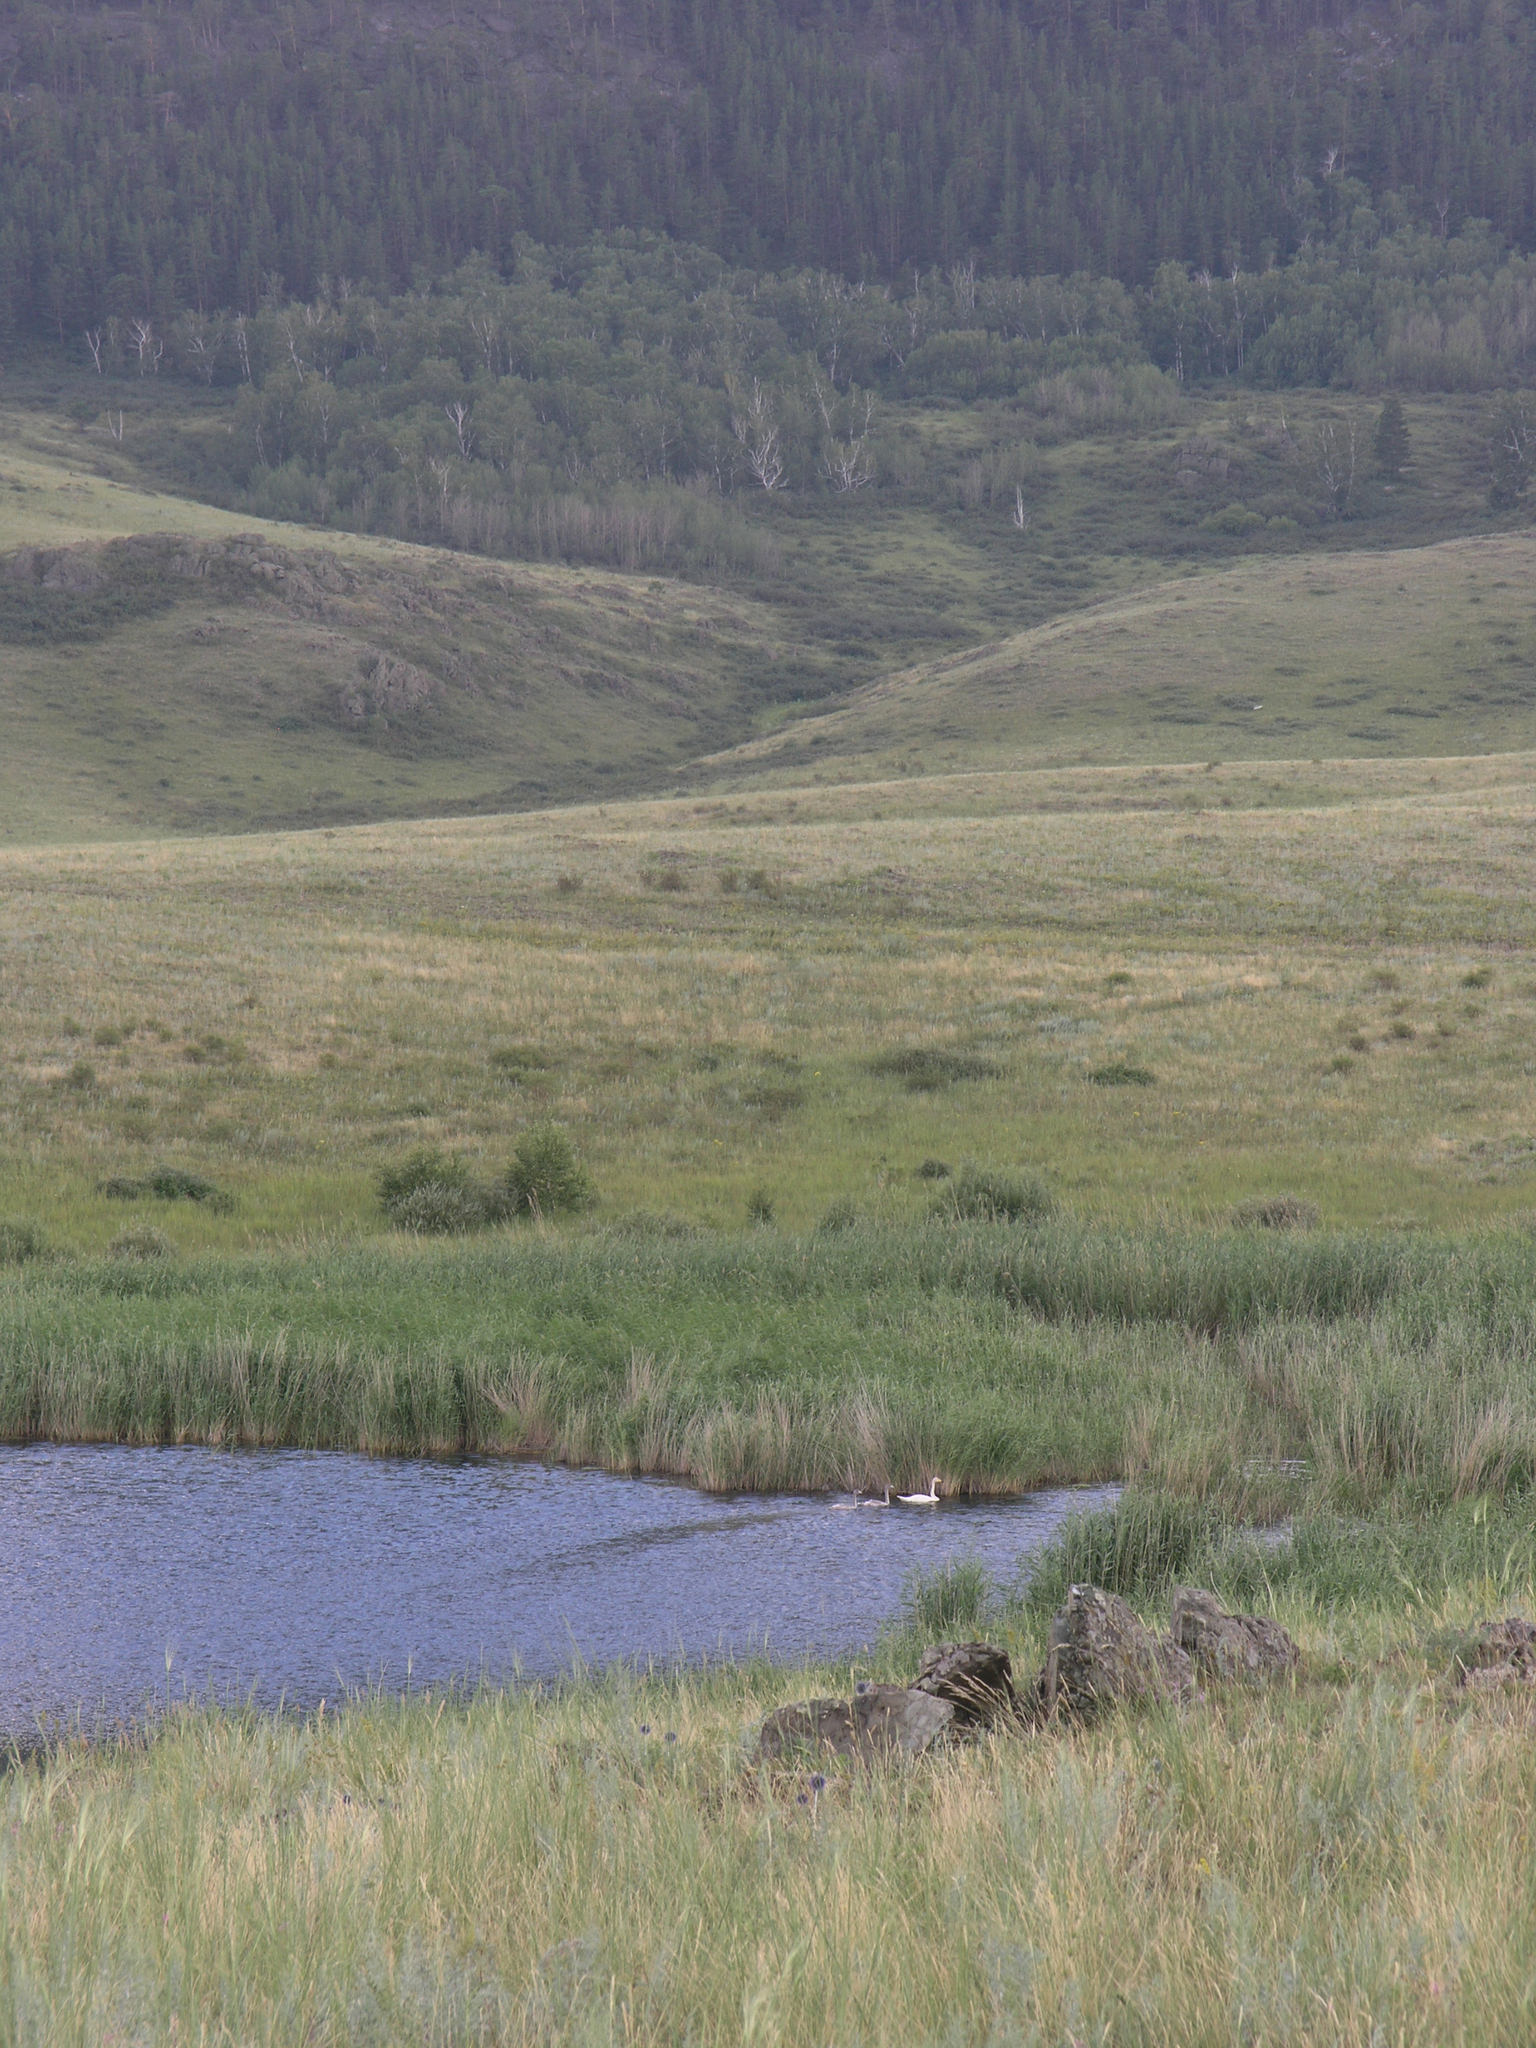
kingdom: Animalia
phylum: Chordata
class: Aves
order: Anseriformes
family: Anatidae
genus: Cygnus
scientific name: Cygnus cygnus
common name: Whooper swan
